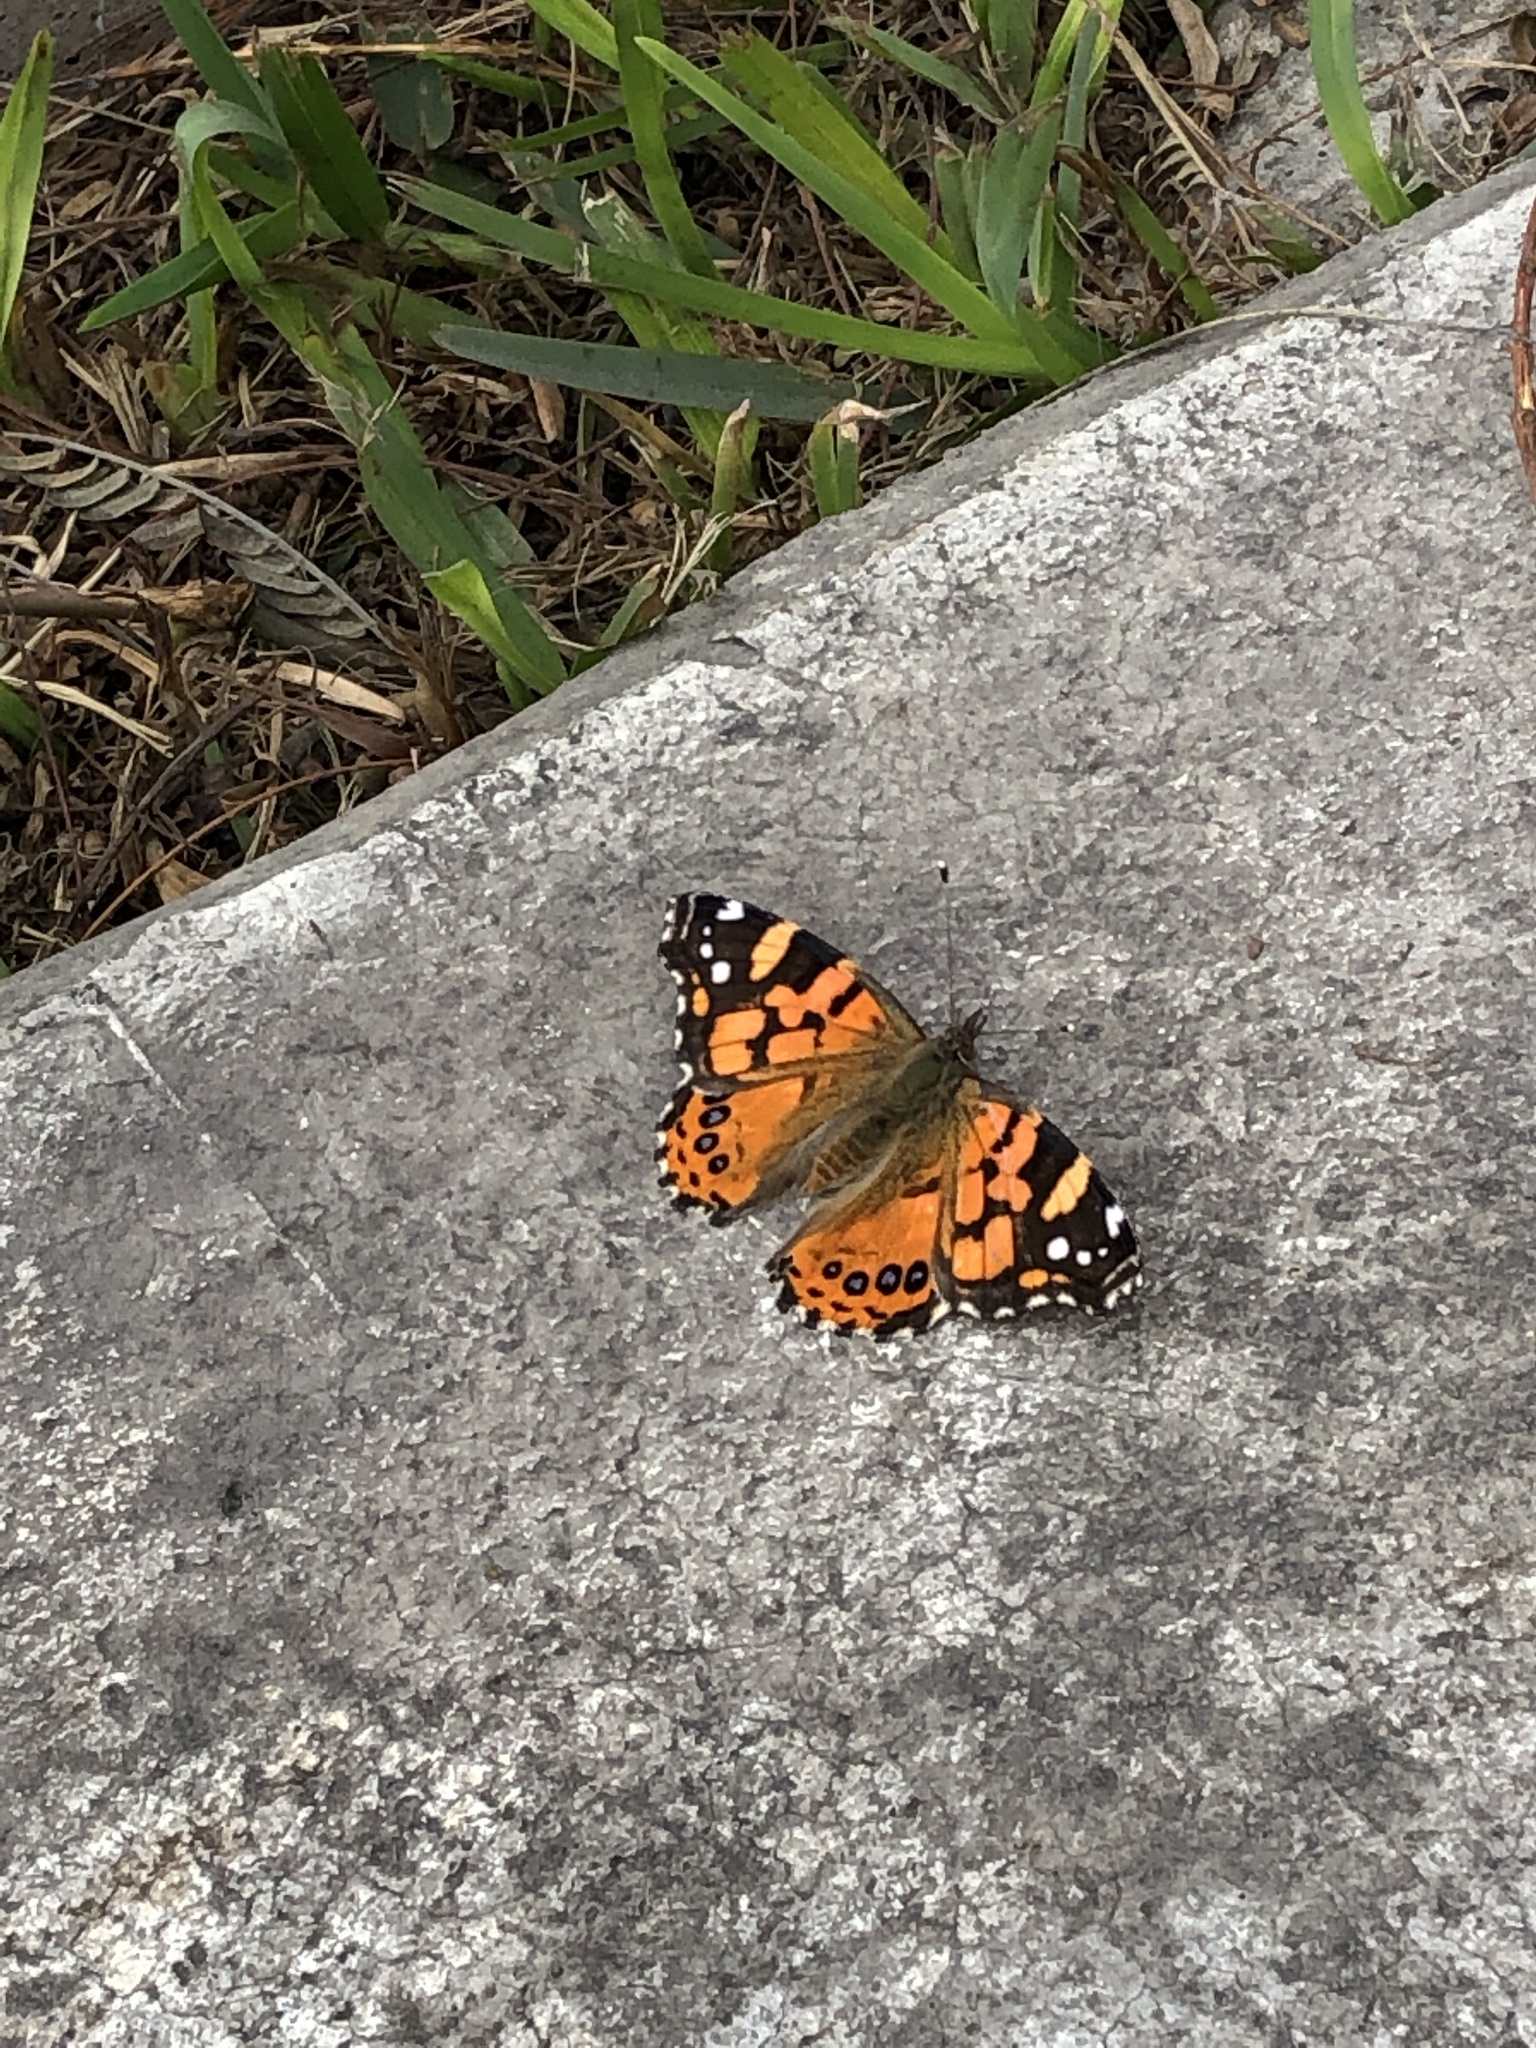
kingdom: Animalia
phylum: Arthropoda
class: Insecta
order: Lepidoptera
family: Nymphalidae
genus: Vanessa
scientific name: Vanessa carye
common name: Subtropical lady
